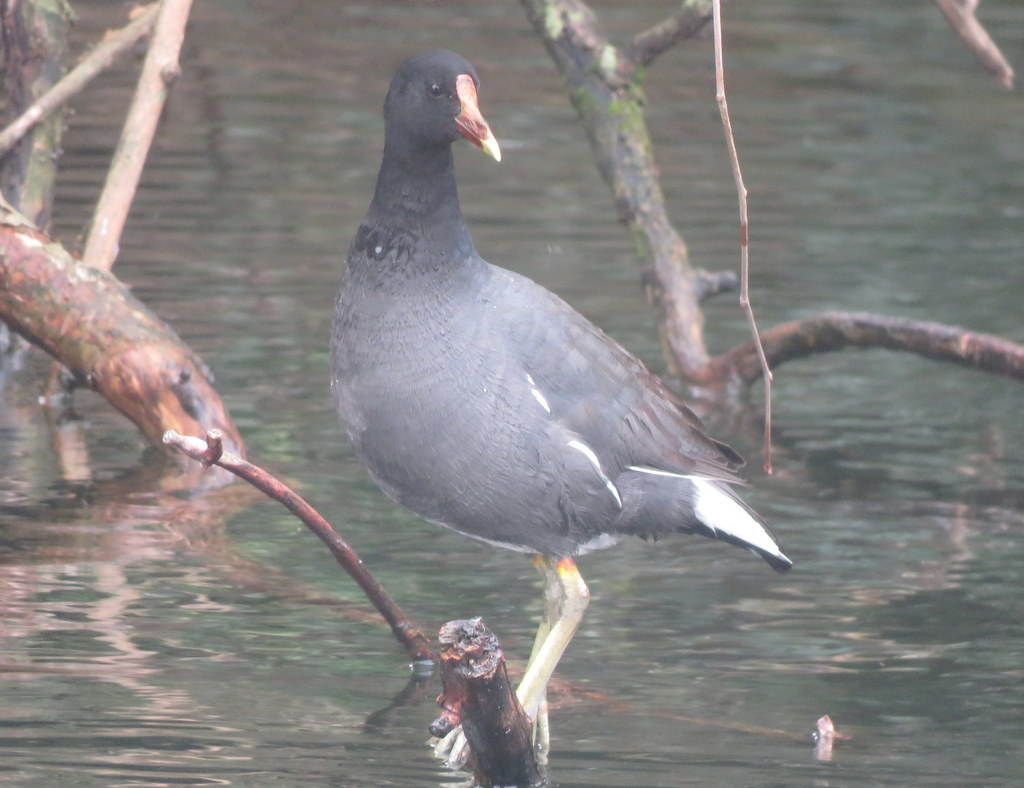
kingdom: Animalia
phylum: Chordata
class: Aves
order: Gruiformes
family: Rallidae
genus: Gallinula
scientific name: Gallinula chloropus
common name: Common moorhen
